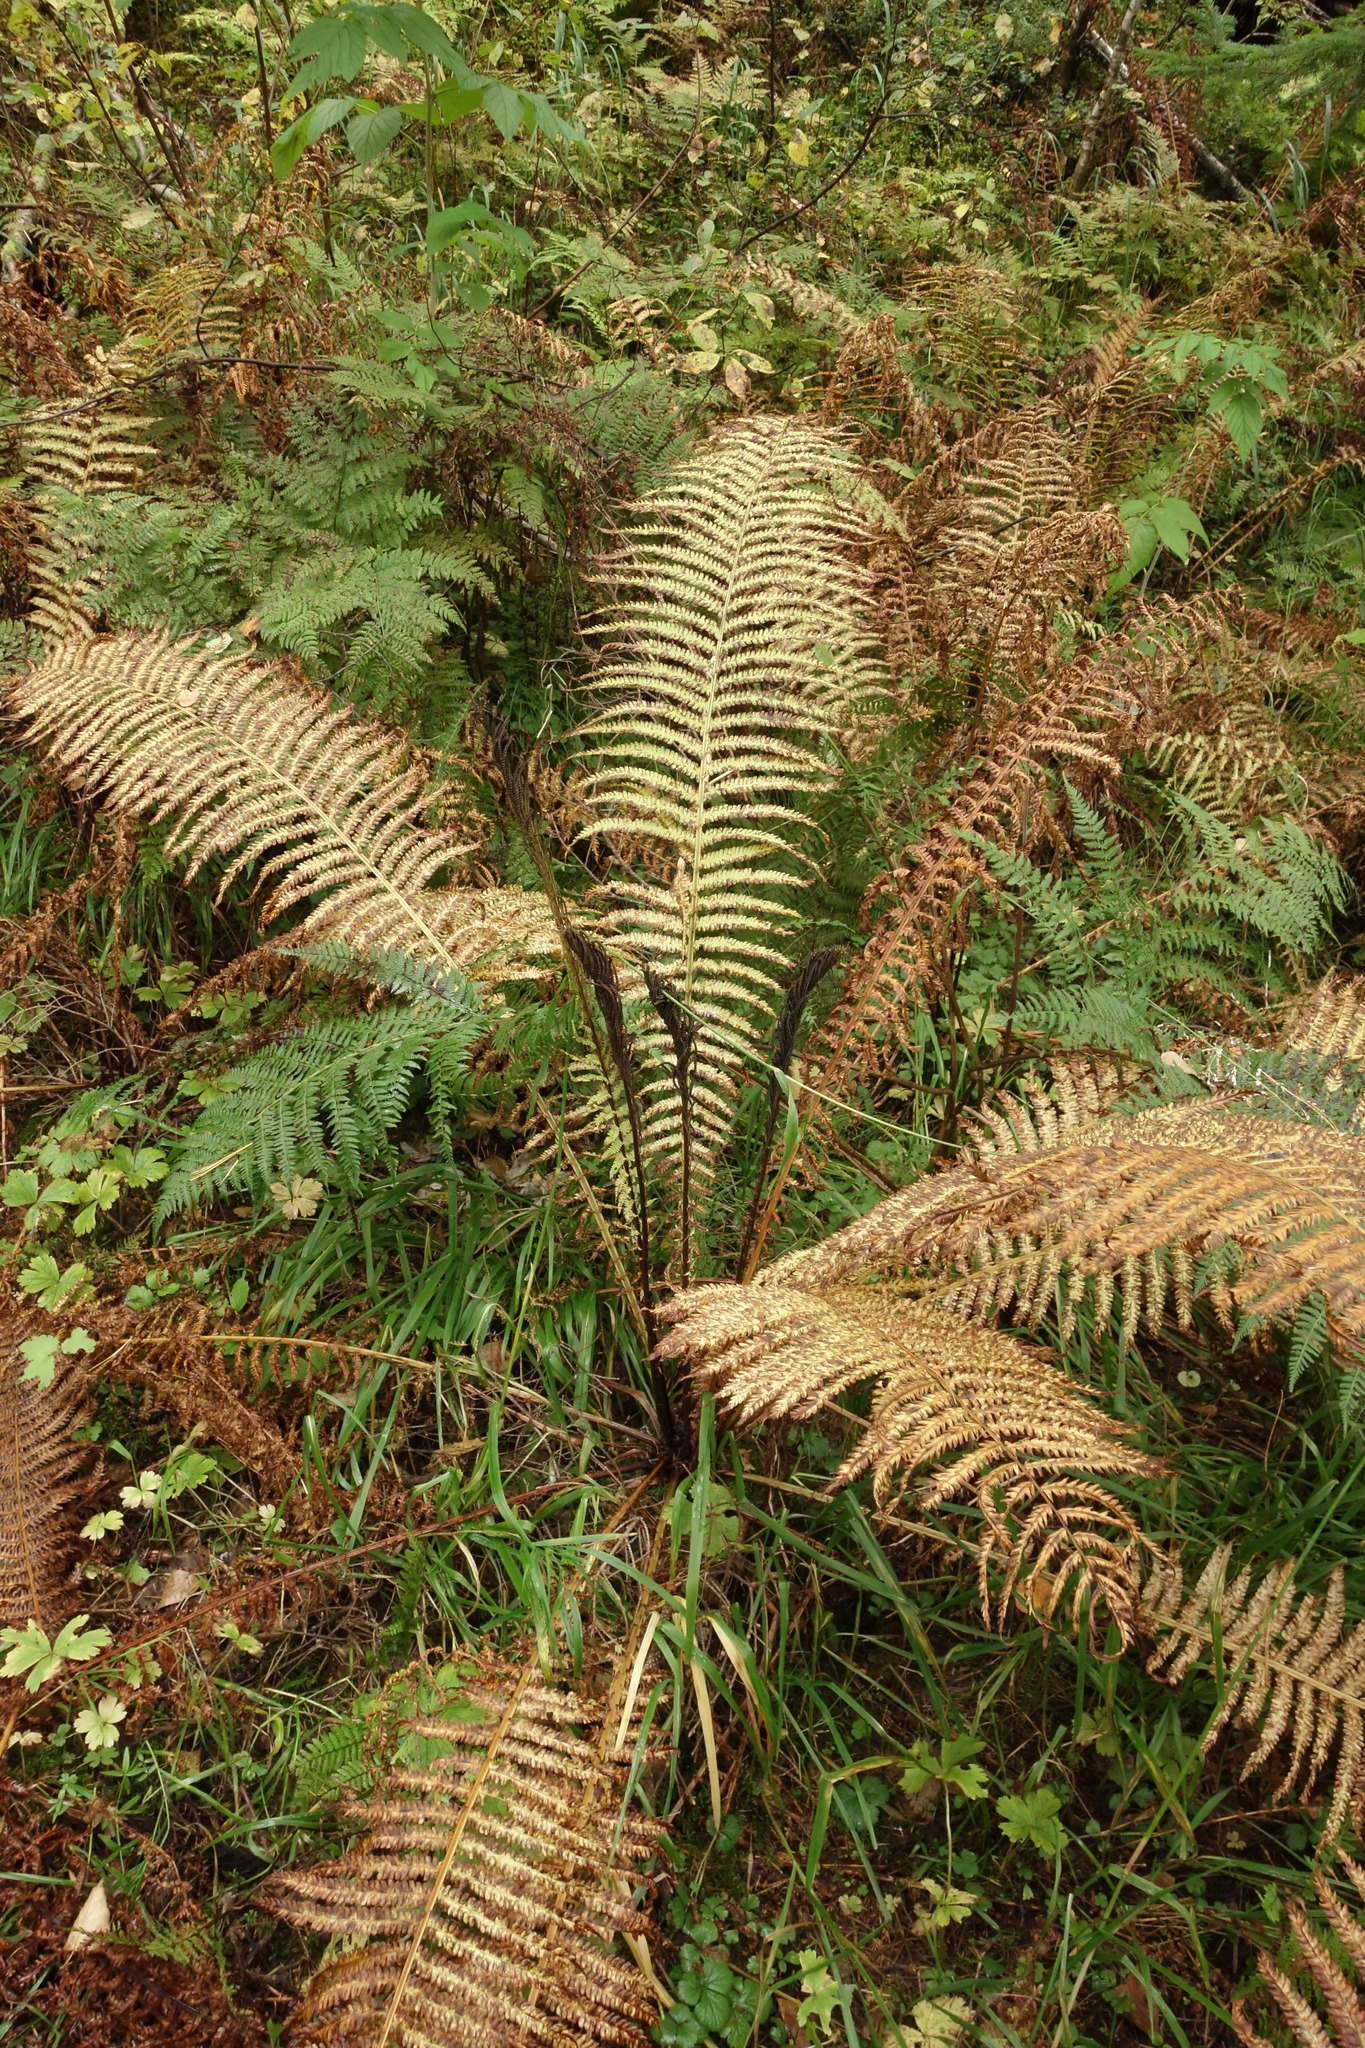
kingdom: Plantae
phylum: Tracheophyta
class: Polypodiopsida
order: Polypodiales
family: Onocleaceae
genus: Matteuccia
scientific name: Matteuccia struthiopteris
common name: Ostrich fern
